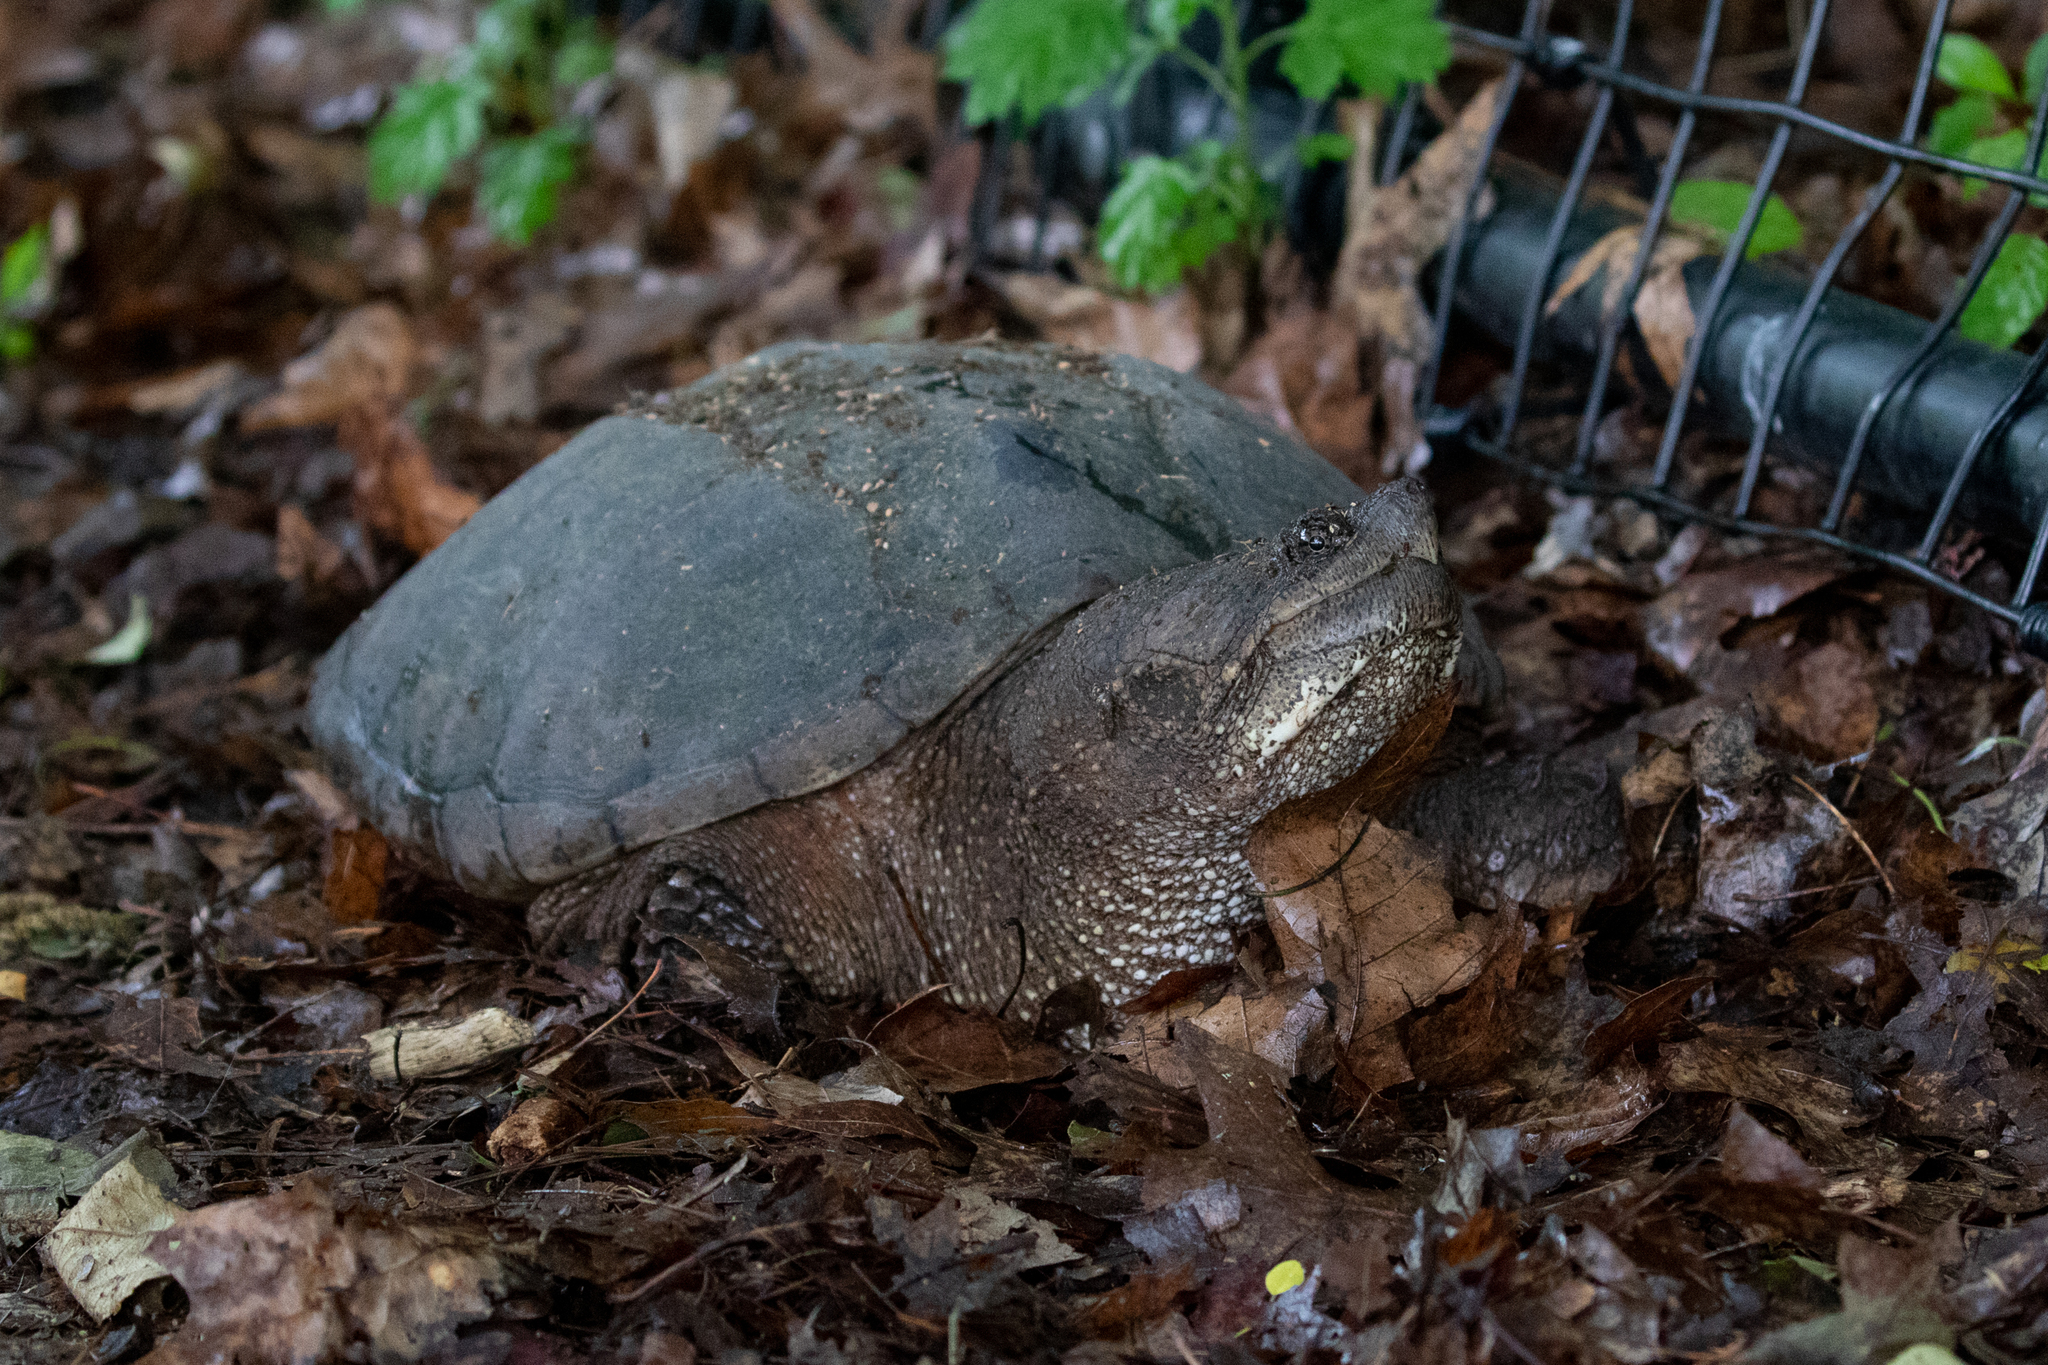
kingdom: Animalia
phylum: Chordata
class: Testudines
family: Chelydridae
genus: Chelydra
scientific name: Chelydra serpentina
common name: Common snapping turtle
